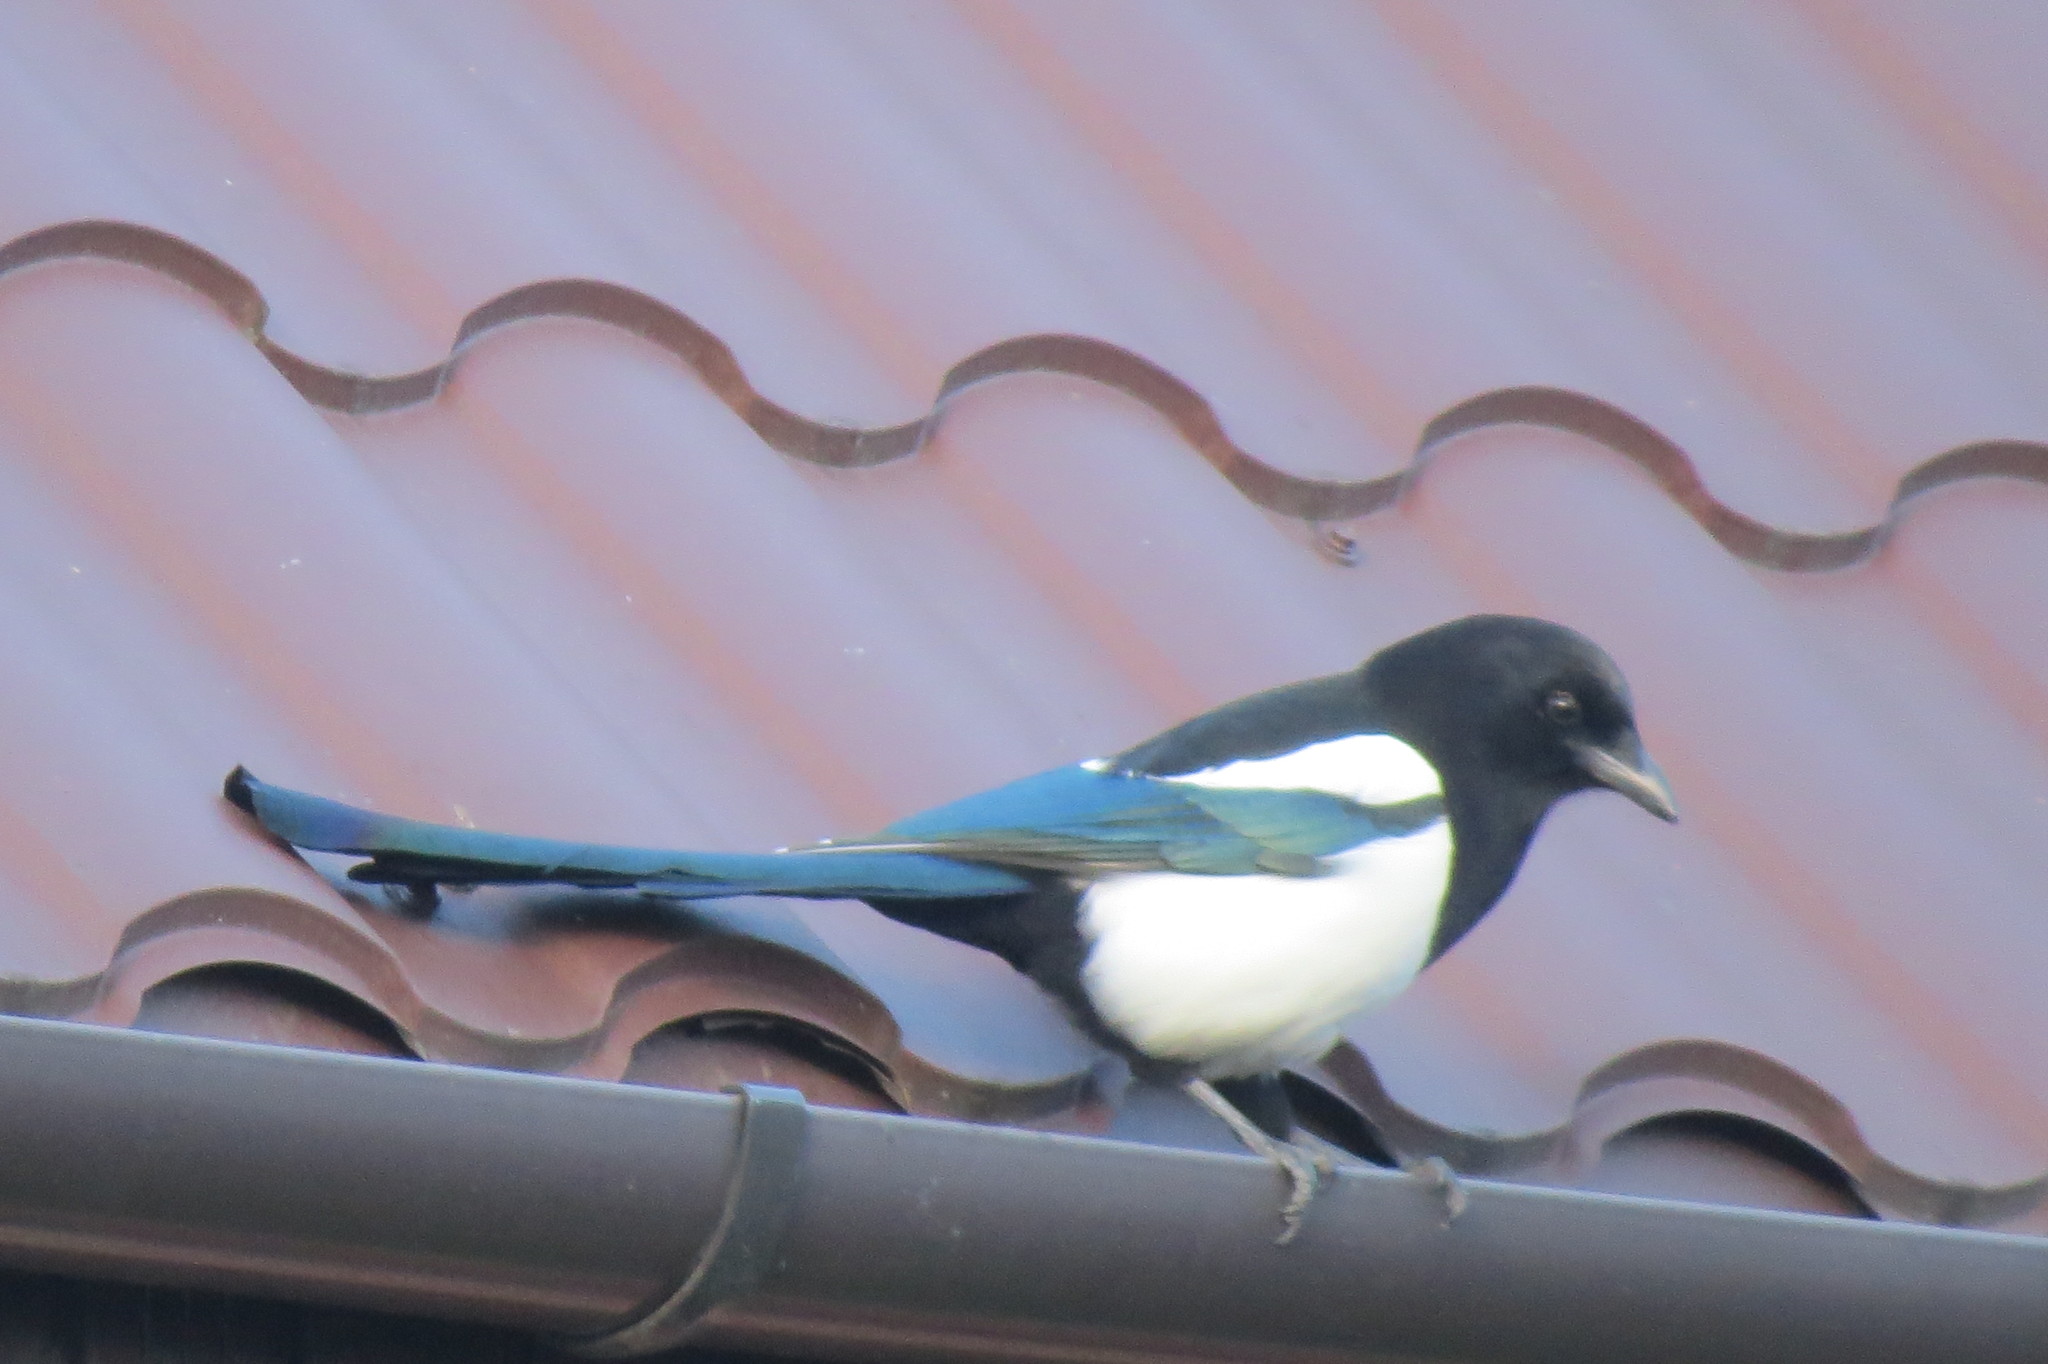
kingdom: Animalia
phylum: Chordata
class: Aves
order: Passeriformes
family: Corvidae
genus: Pica
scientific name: Pica pica
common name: Eurasian magpie
